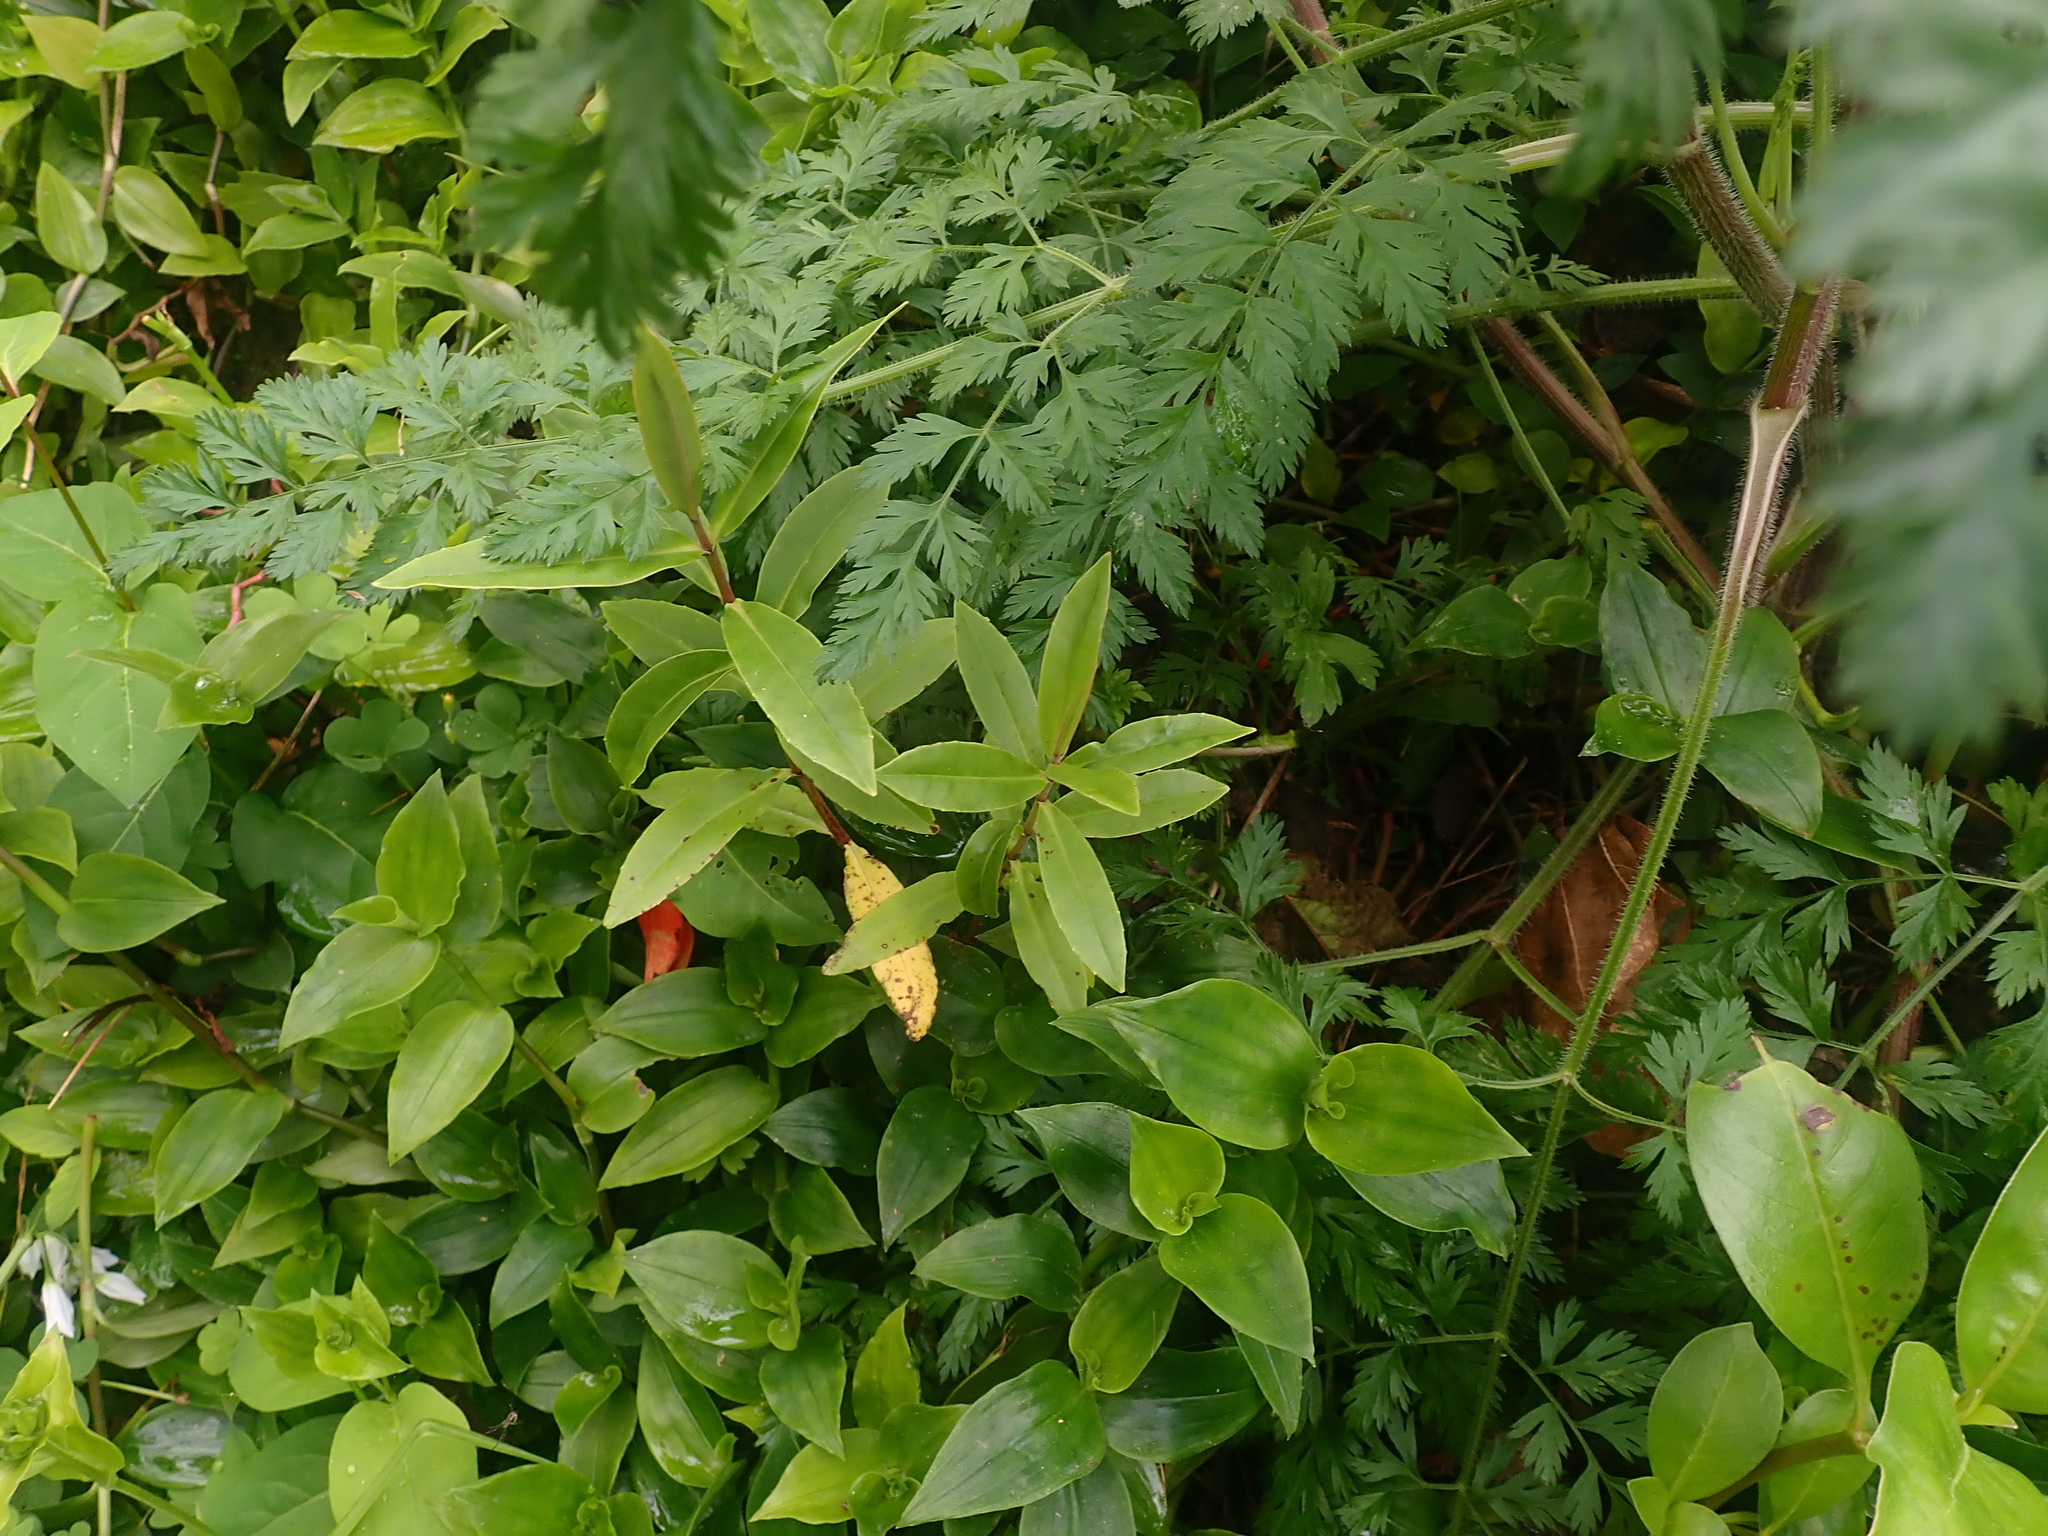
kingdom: Plantae
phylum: Tracheophyta
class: Magnoliopsida
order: Lamiales
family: Plantaginaceae
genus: Veronica
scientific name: Veronica stricta
